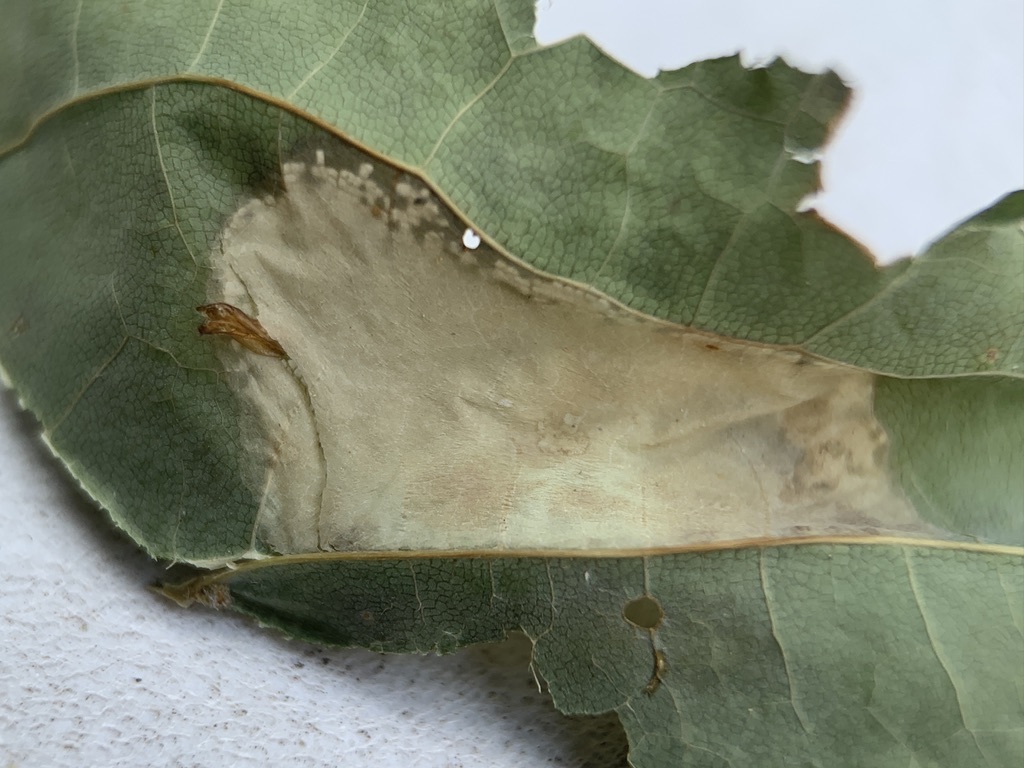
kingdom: Animalia
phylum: Arthropoda
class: Insecta
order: Lepidoptera
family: Gracillariidae
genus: Phyllonorycter
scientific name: Phyllonorycter lucidicostella
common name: Lesser maple leaf blotch miner moth
